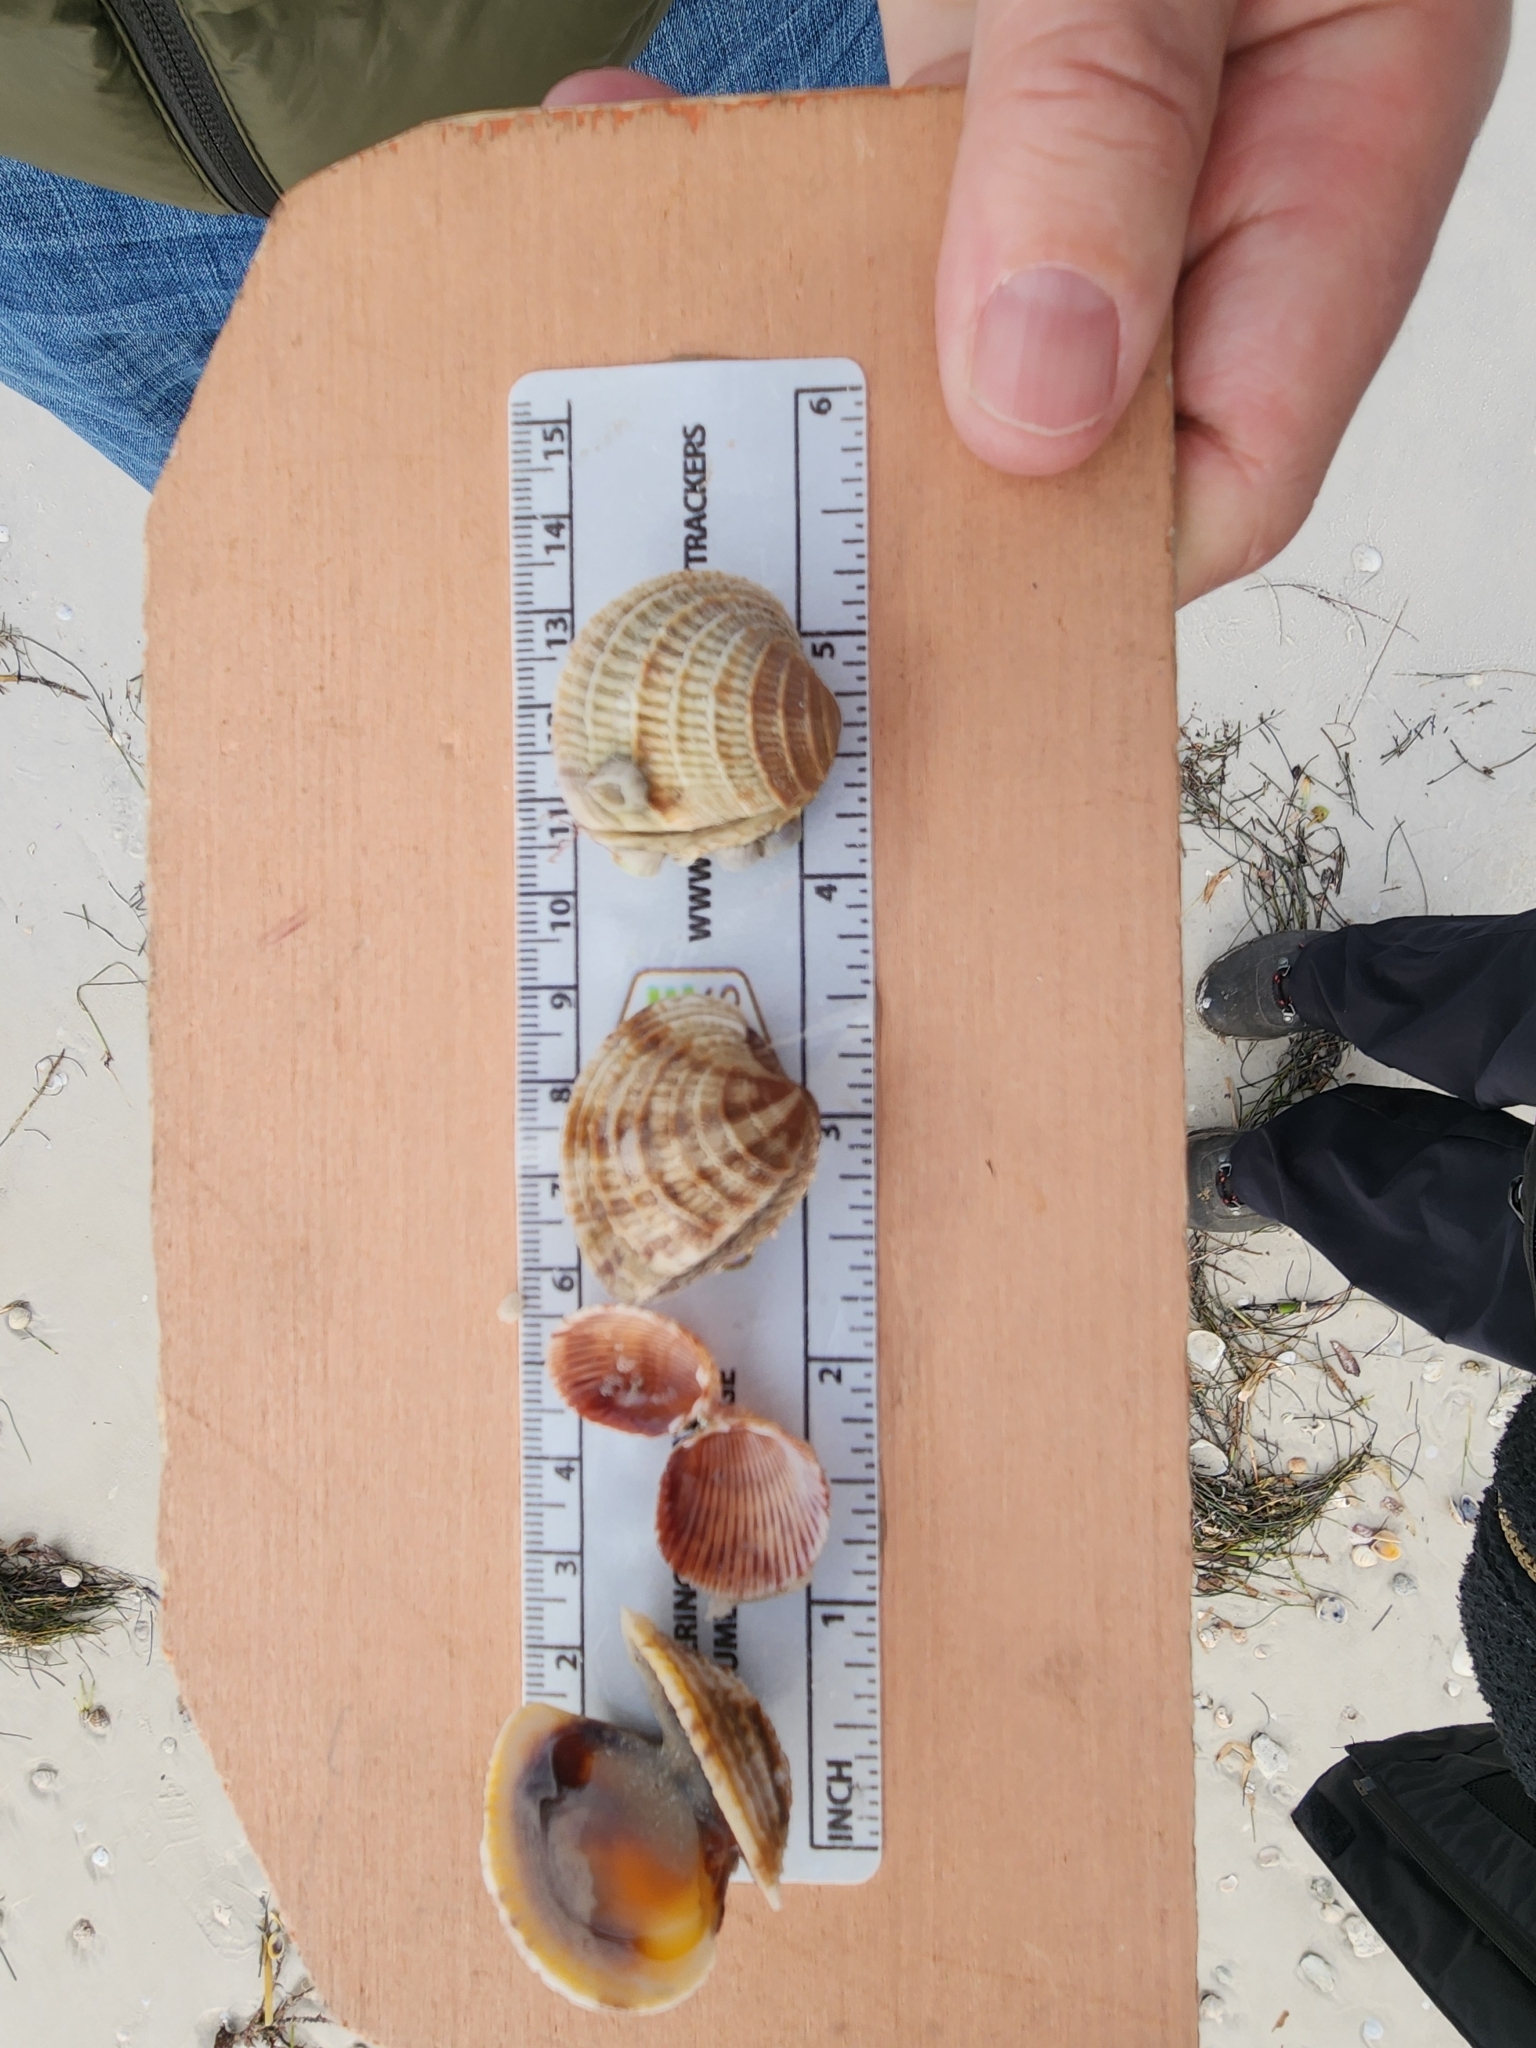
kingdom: Animalia
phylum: Mollusca
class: Bivalvia
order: Venerida
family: Veneridae
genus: Chione
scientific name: Chione elevata
